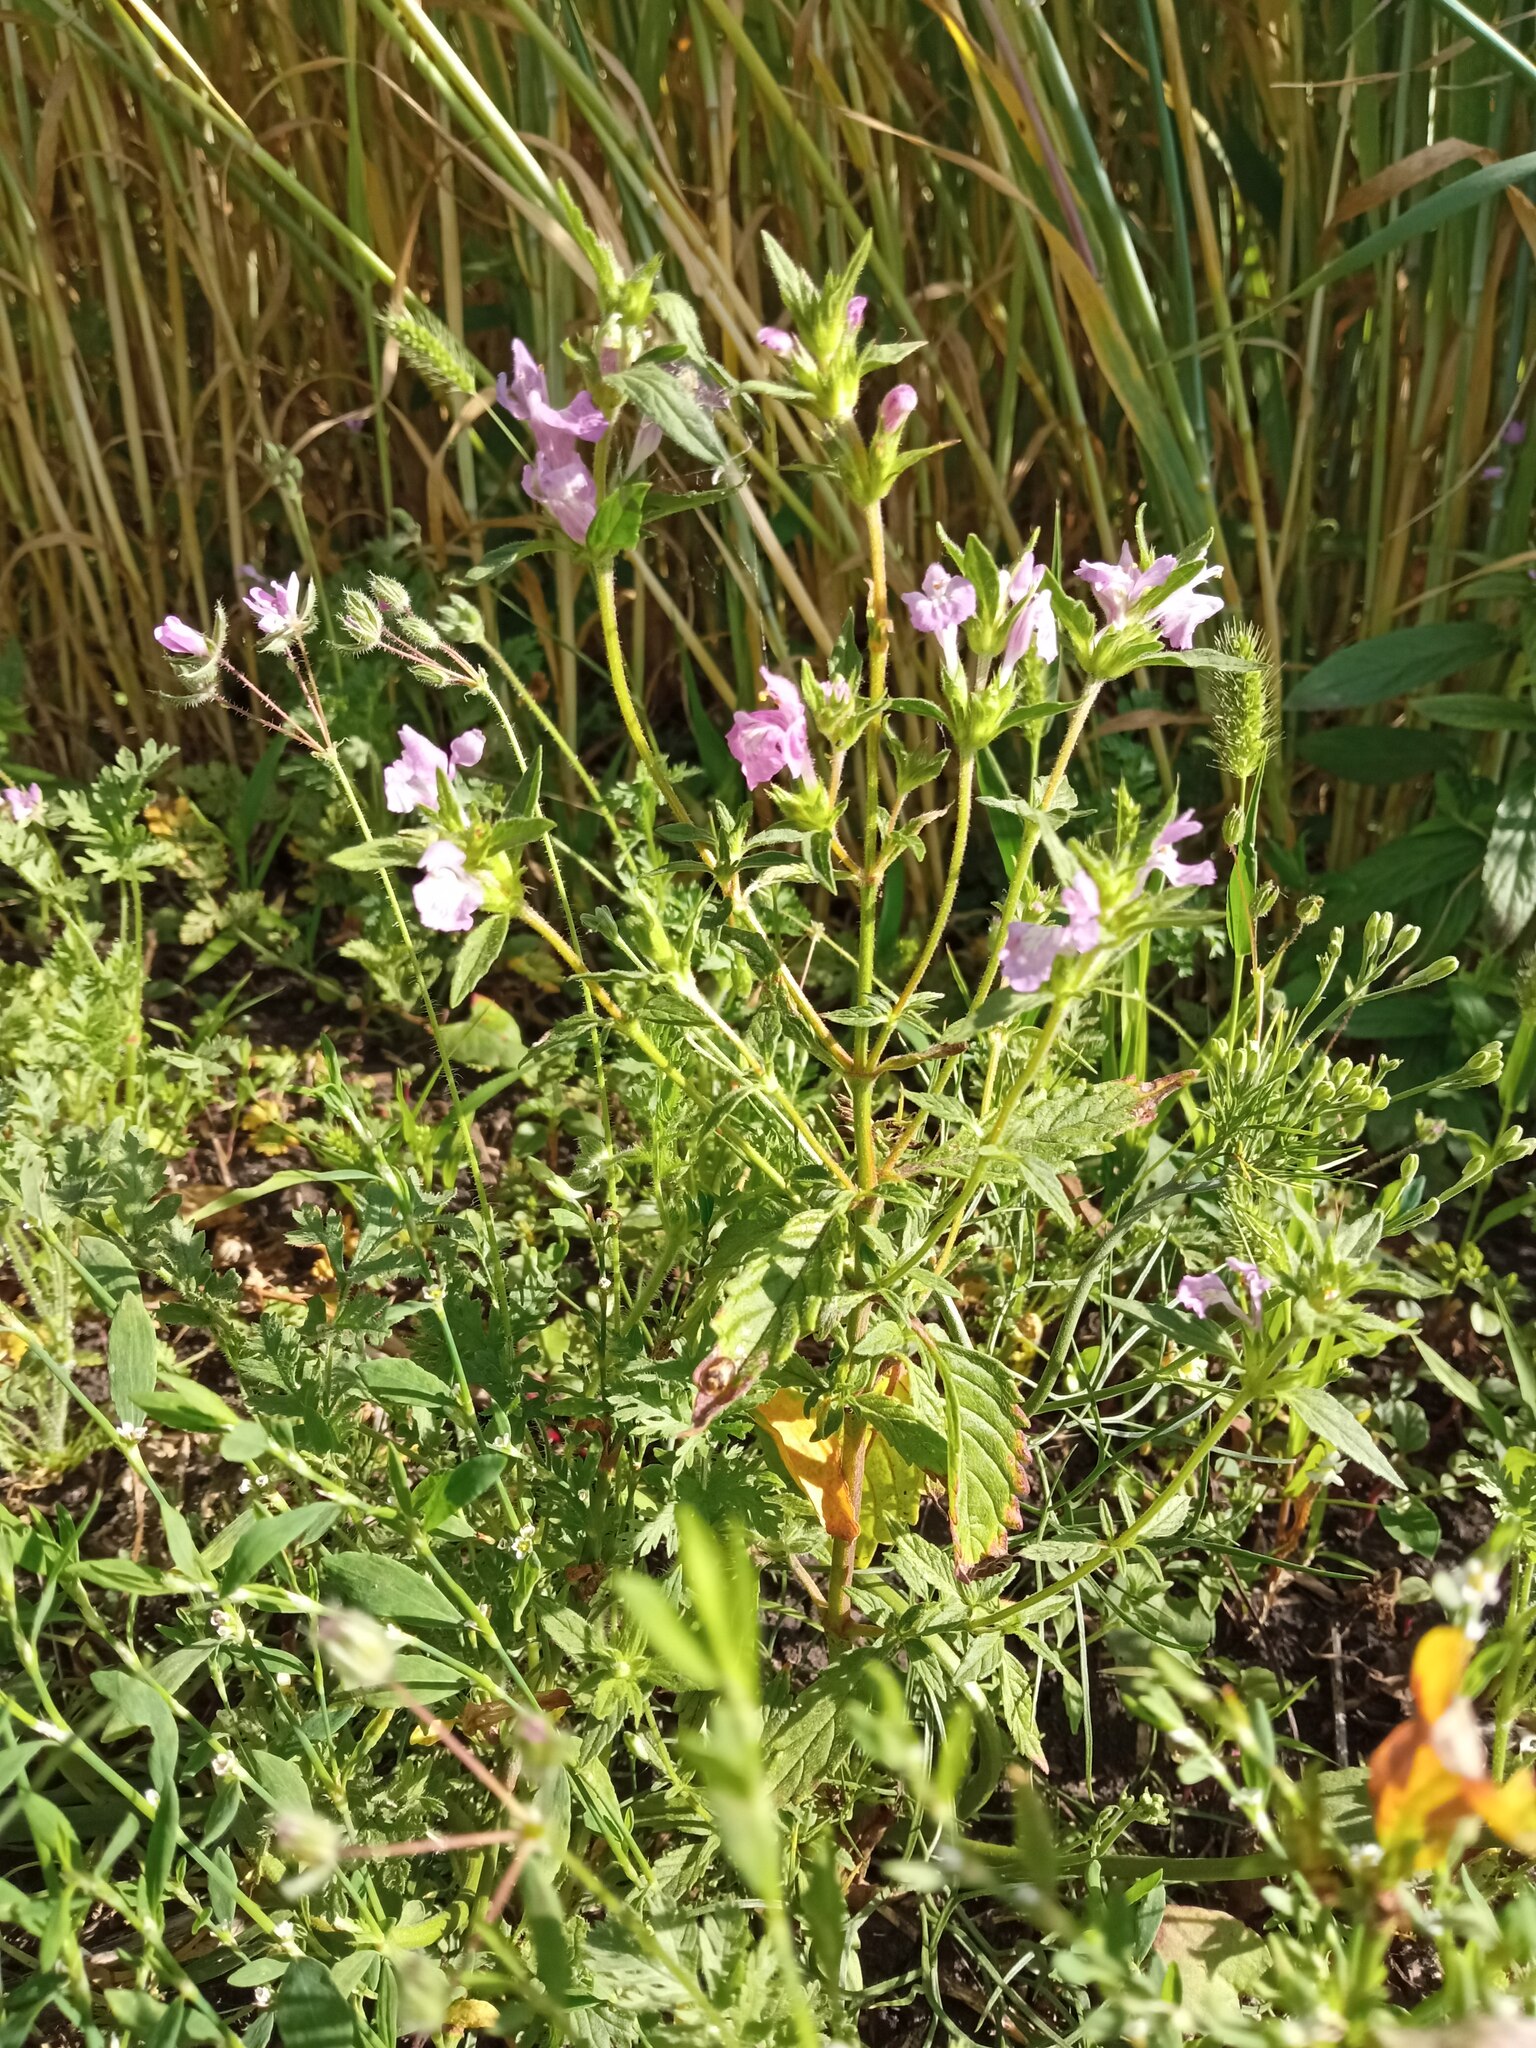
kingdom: Plantae
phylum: Tracheophyta
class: Magnoliopsida
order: Lamiales
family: Lamiaceae
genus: Galeopsis
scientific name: Galeopsis ladanum
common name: Broad-leaved hemp-nettle
